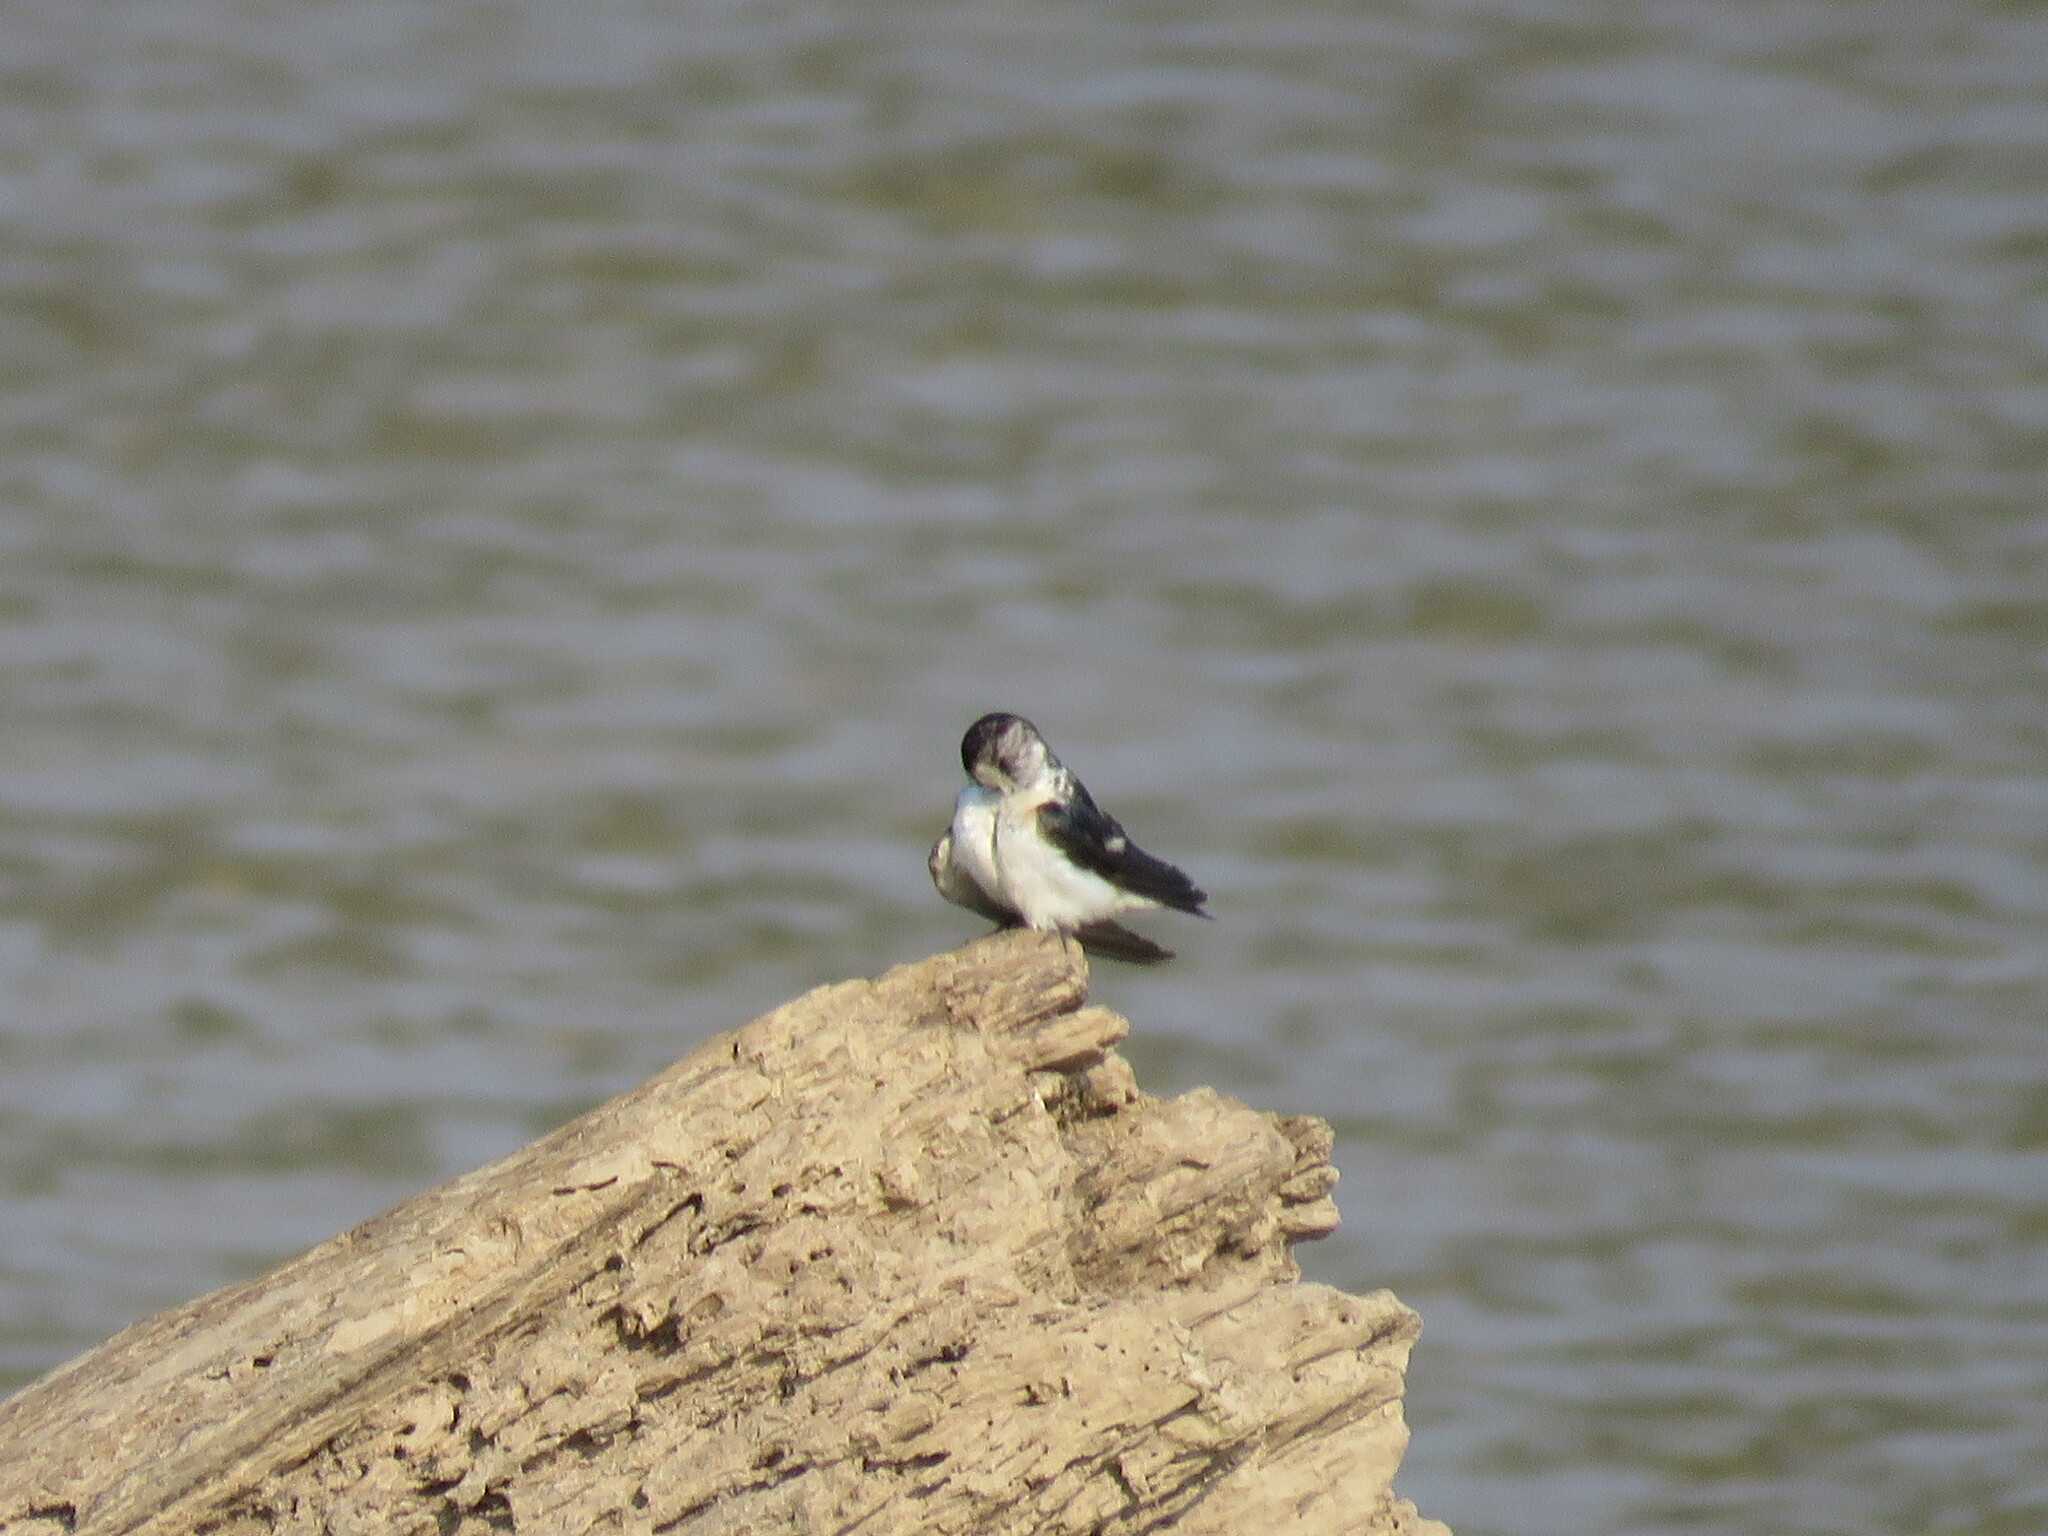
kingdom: Animalia
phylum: Chordata
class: Aves
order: Passeriformes
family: Hirundinidae
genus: Tachycineta
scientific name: Tachycineta albiventer
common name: White-winged swallow
